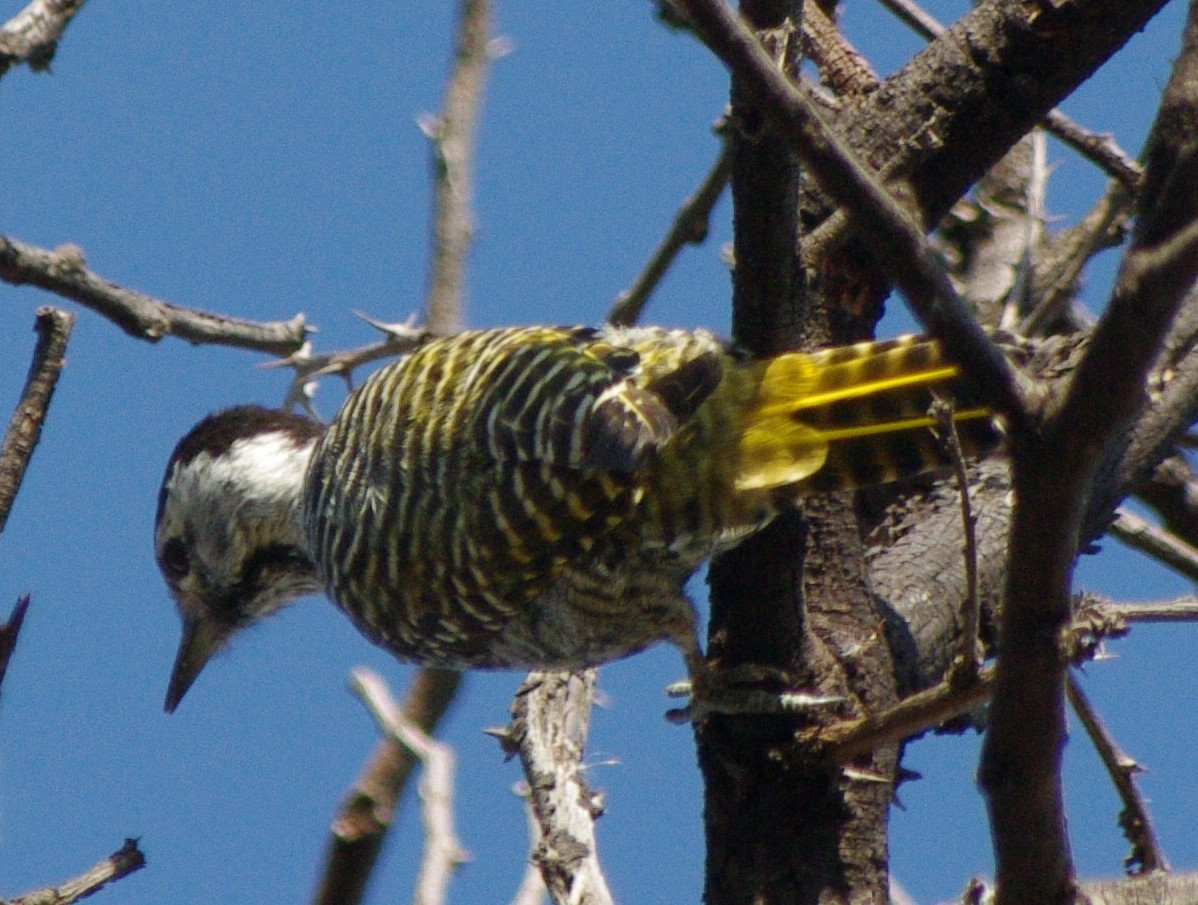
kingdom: Animalia
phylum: Chordata
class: Aves
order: Piciformes
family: Picidae
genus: Dendropicos
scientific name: Dendropicos fuscescens
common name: Cardinal woodpecker
